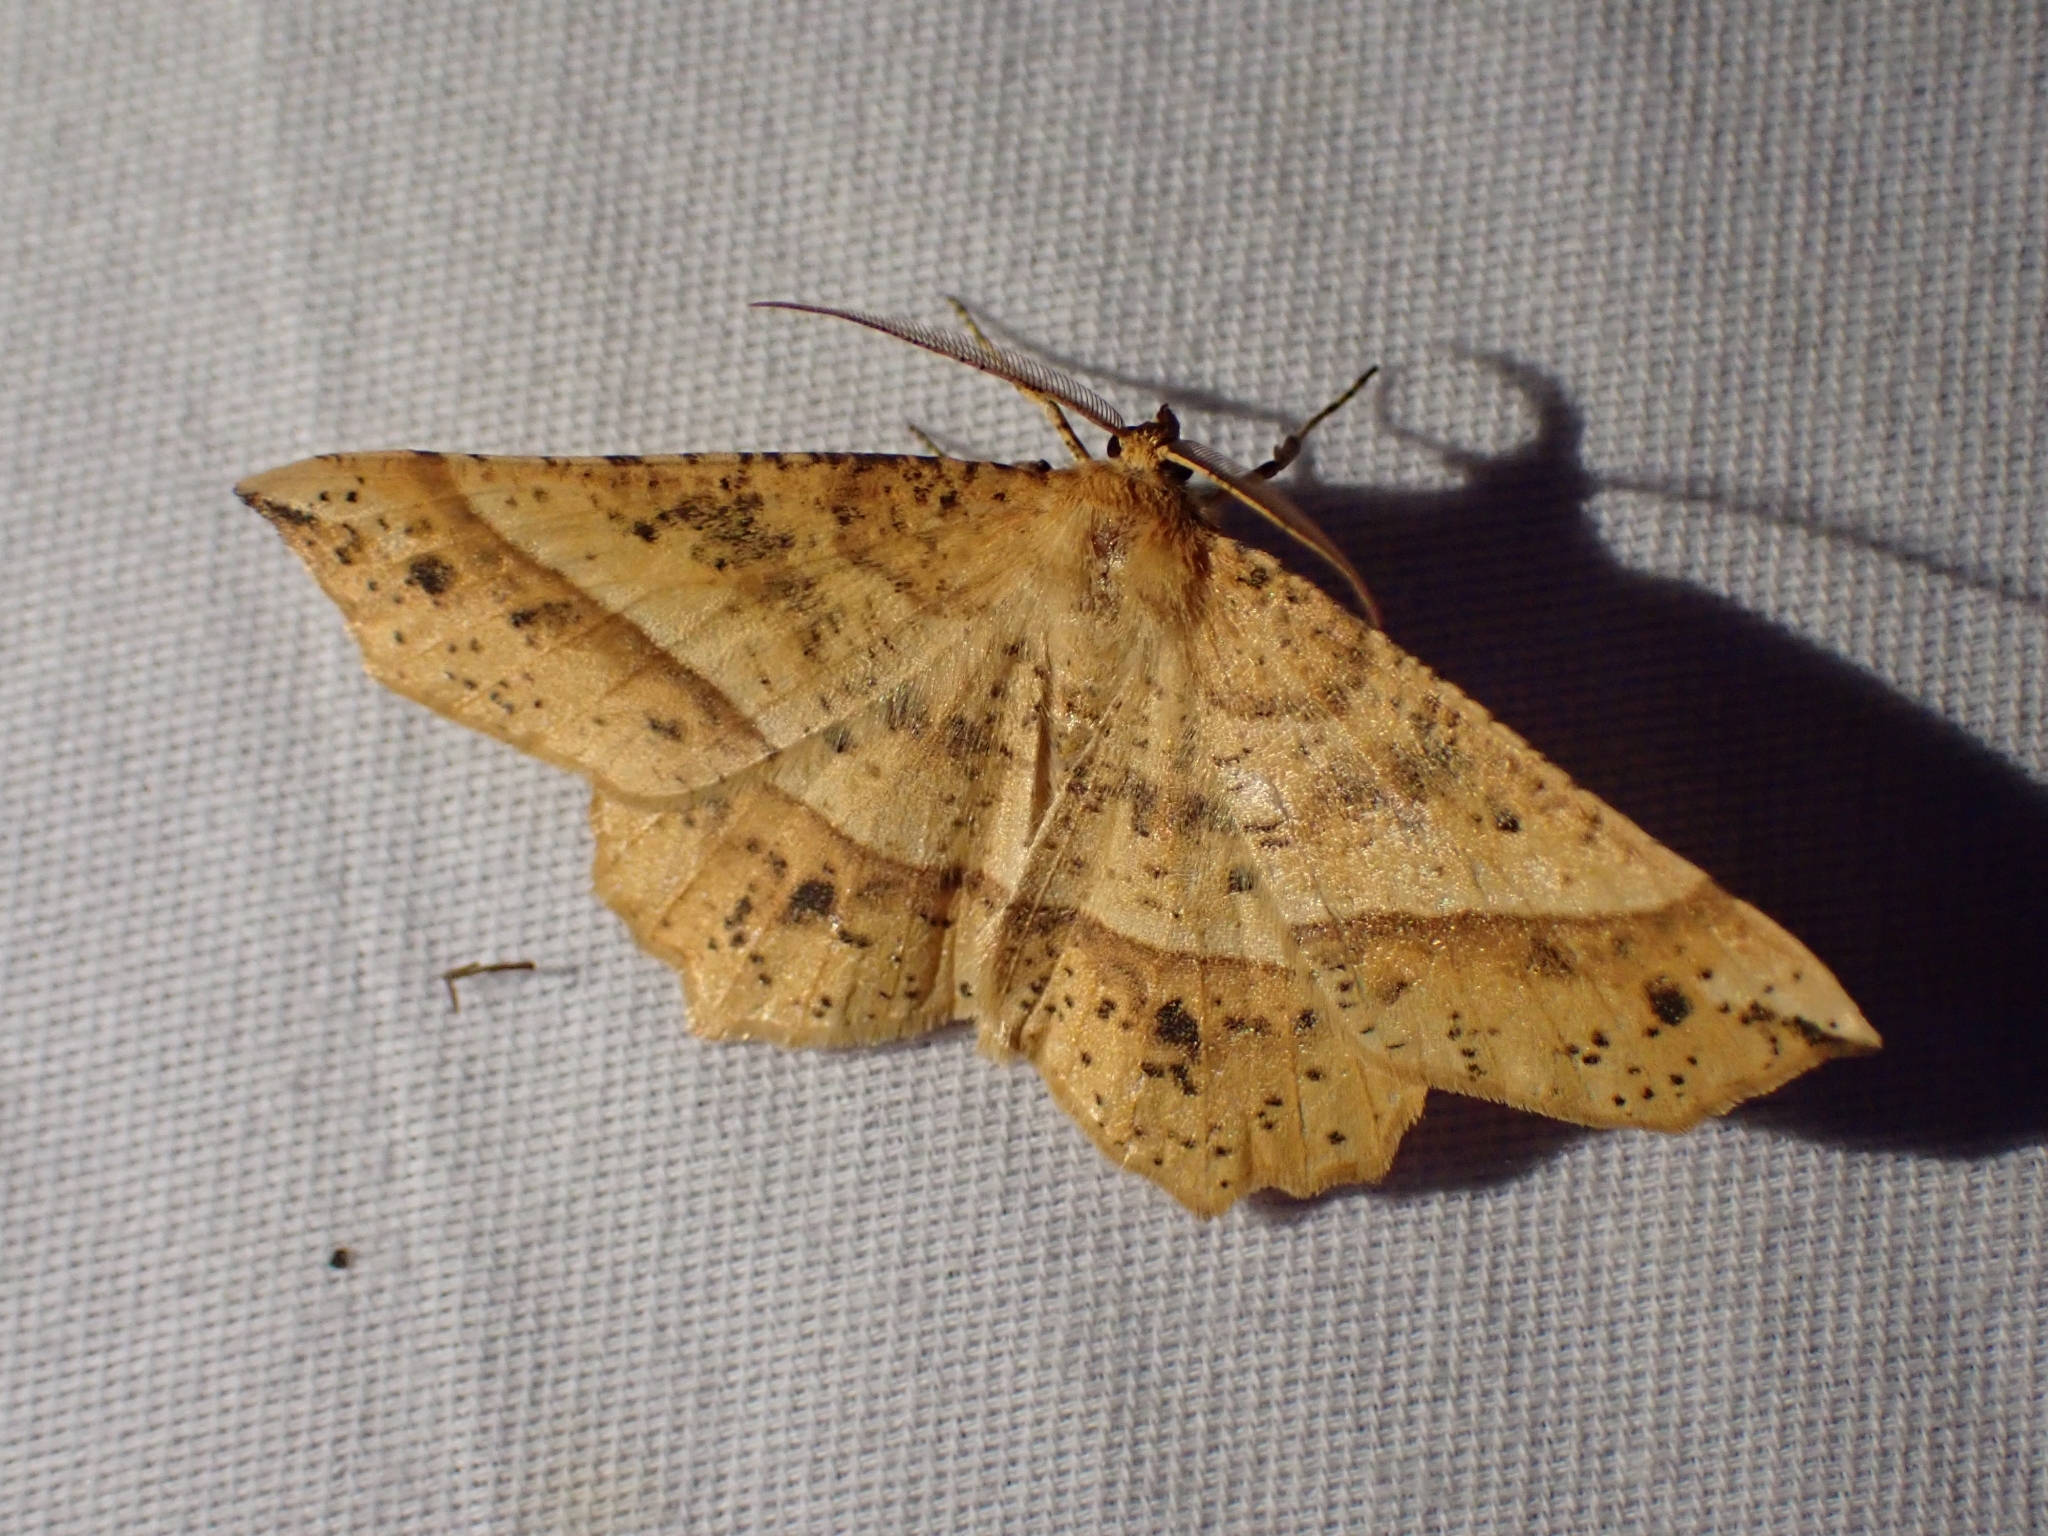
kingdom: Animalia
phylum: Arthropoda
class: Insecta
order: Lepidoptera
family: Geometridae
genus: Euchlaena
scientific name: Euchlaena tigrinaria
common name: Mottled euchlaena moth
